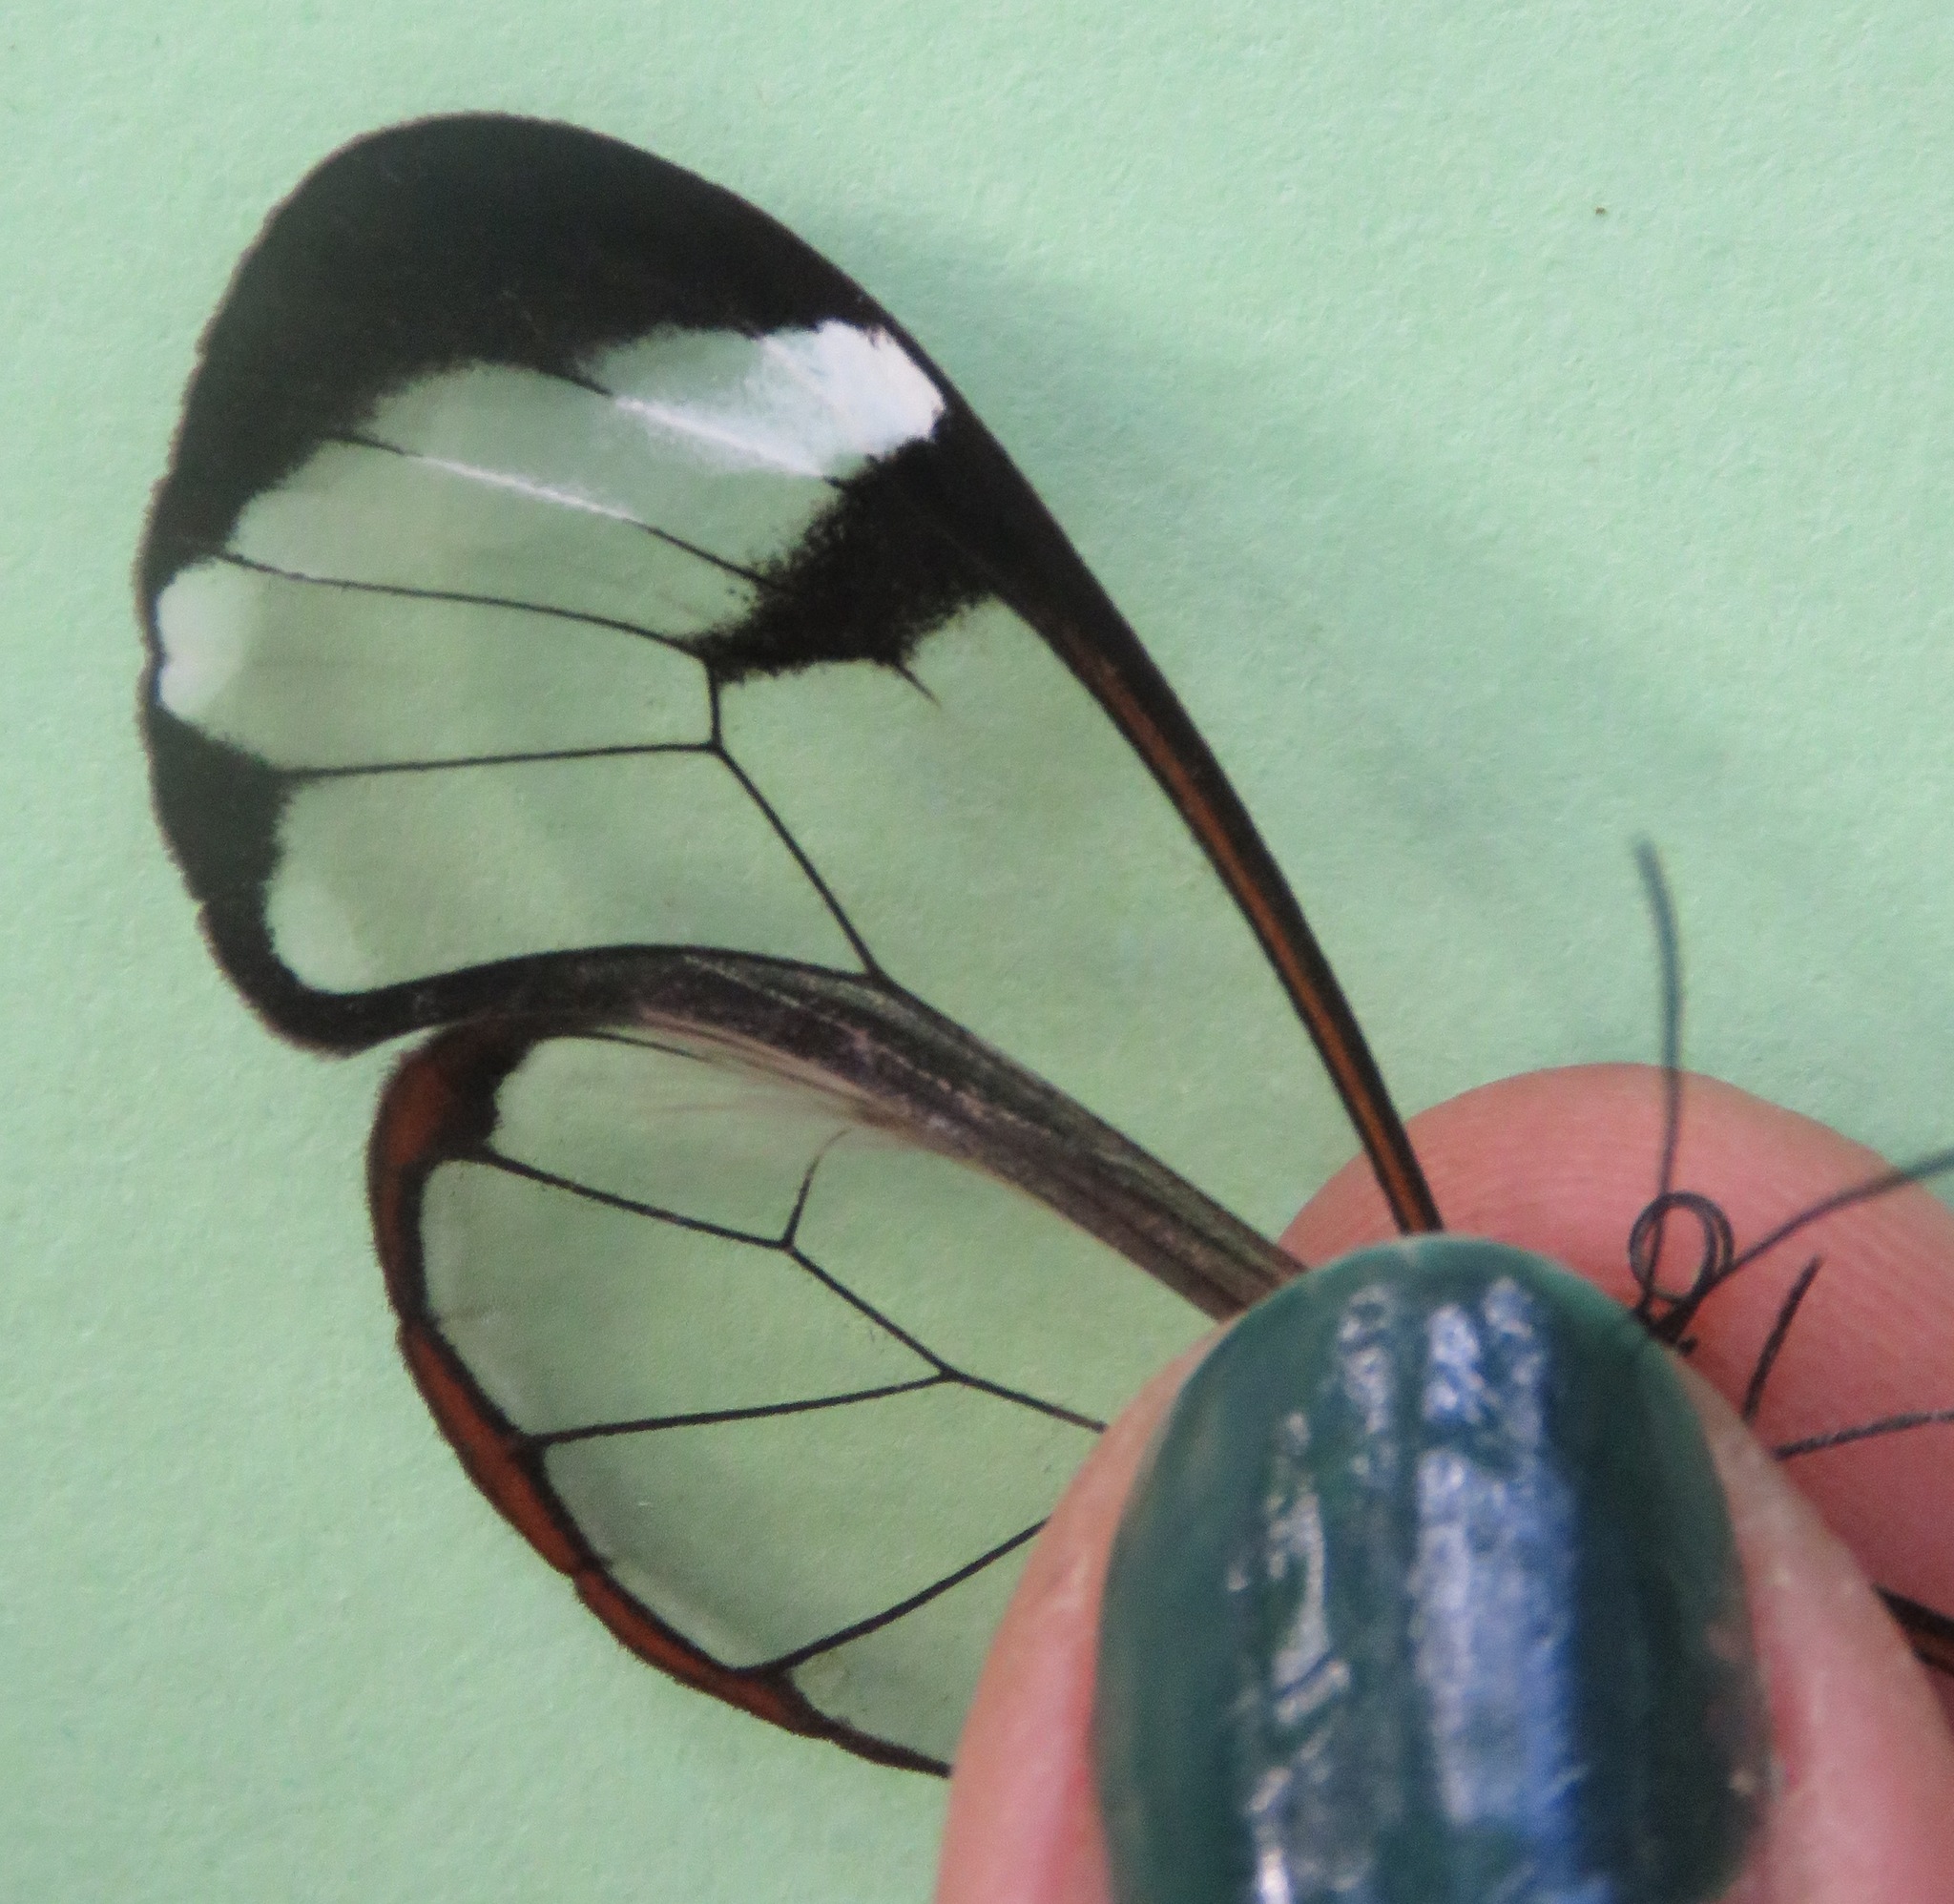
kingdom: Animalia
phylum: Arthropoda
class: Insecta
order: Lepidoptera
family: Nymphalidae
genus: Greta
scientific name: Greta morgane
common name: Thick-tipped greta
